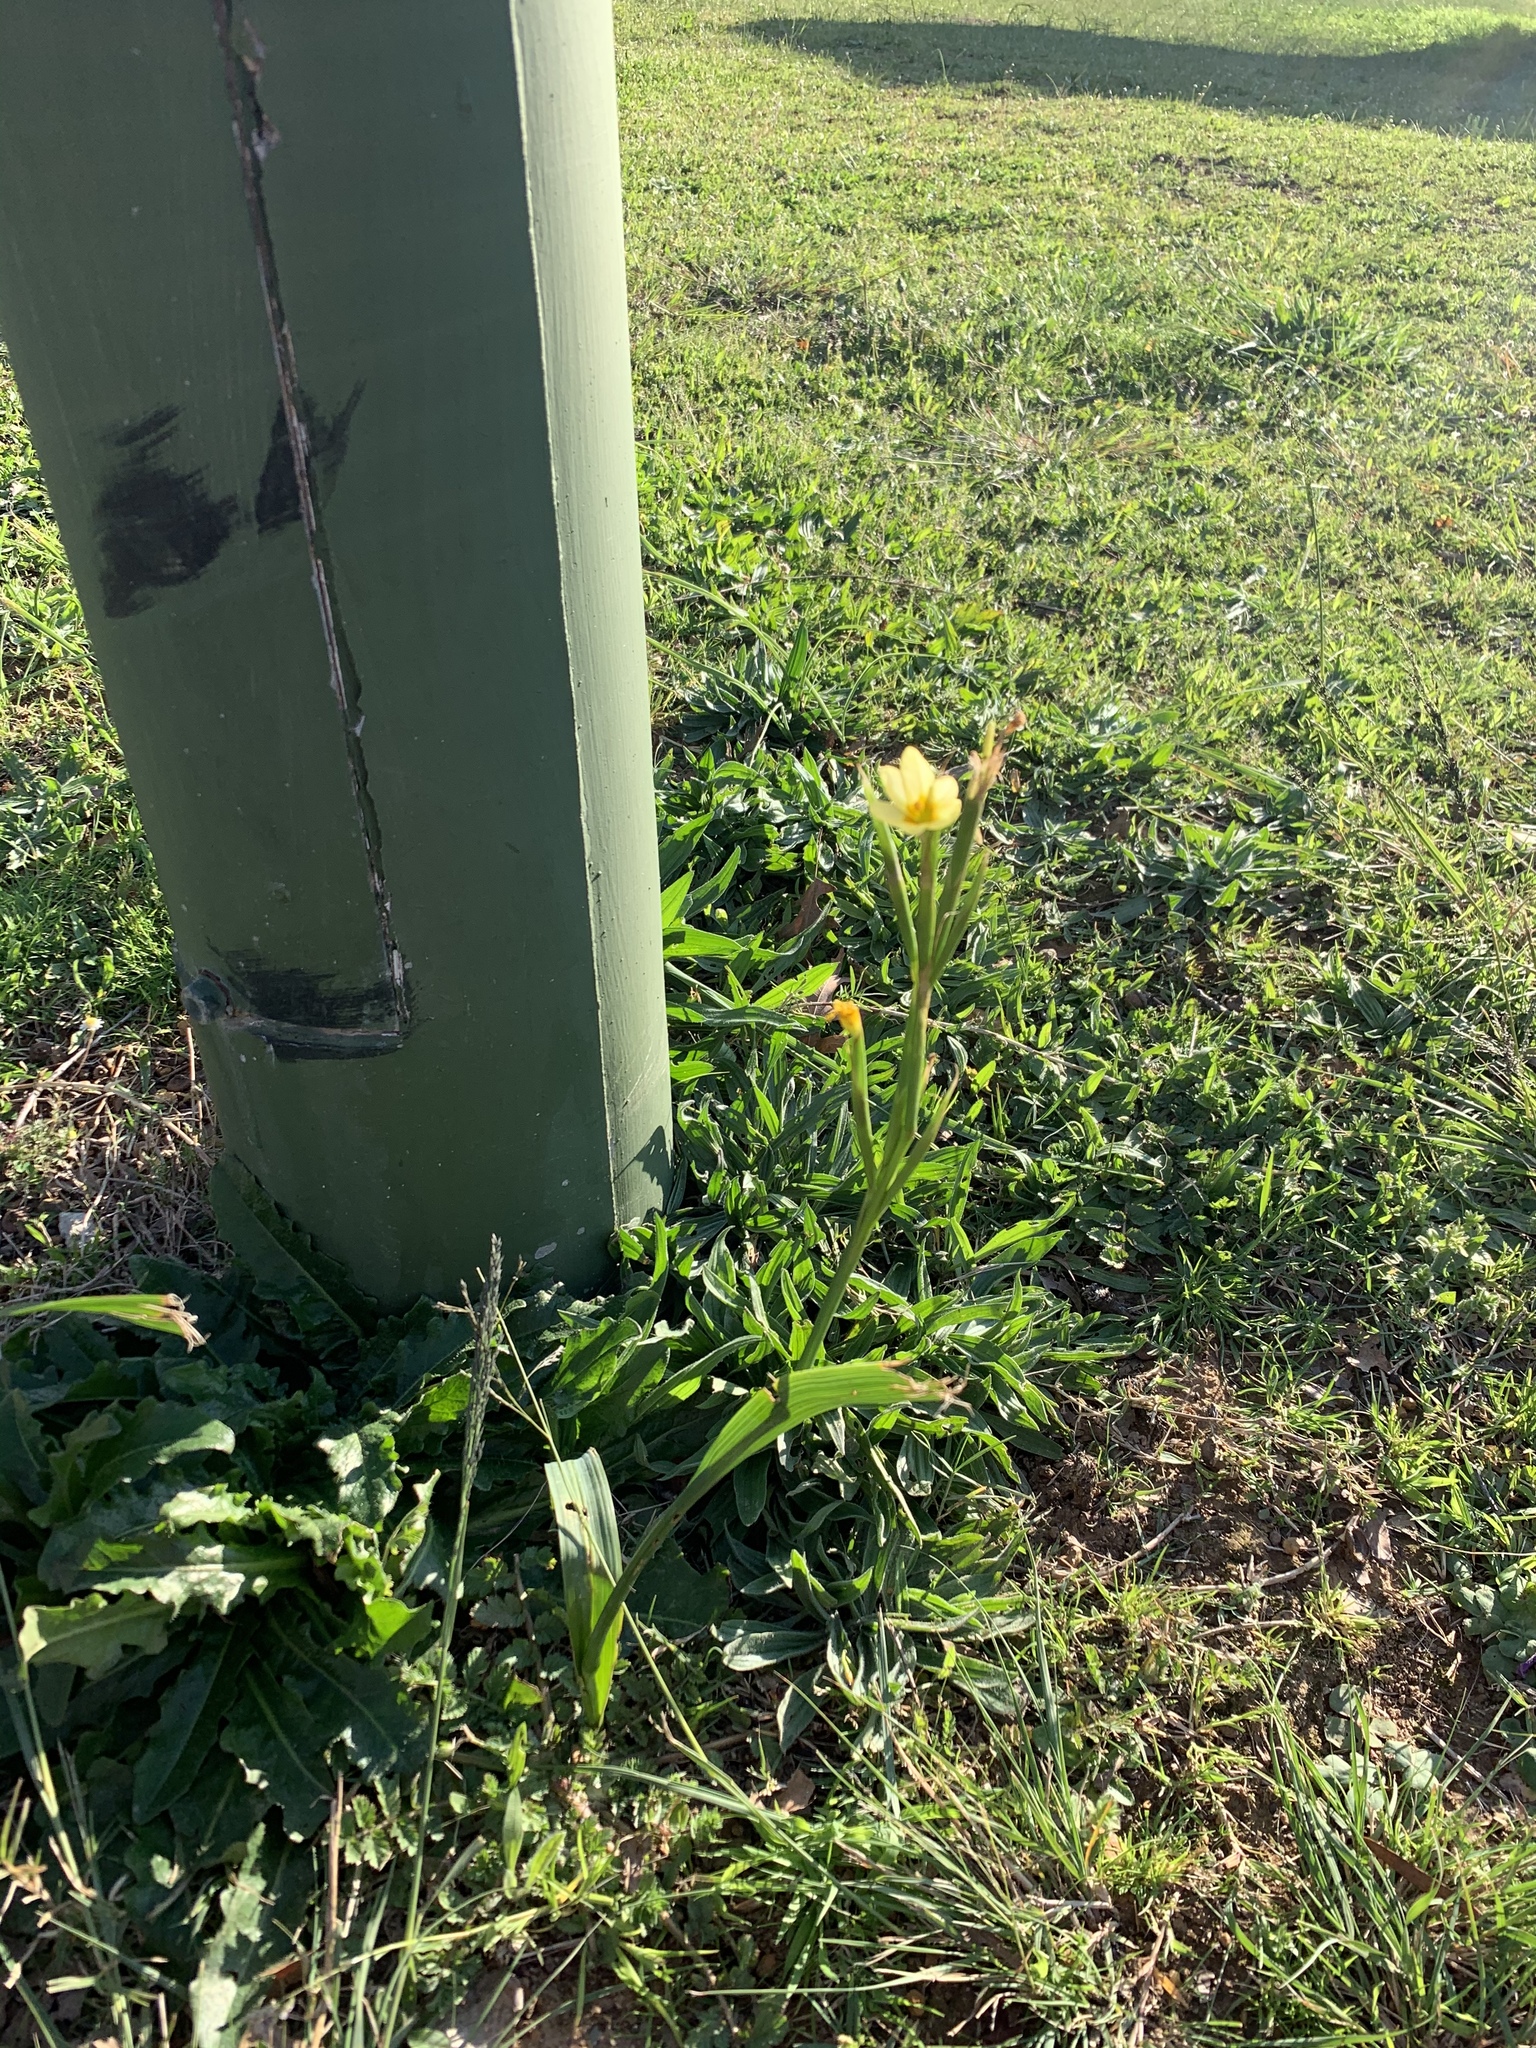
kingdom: Plantae
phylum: Tracheophyta
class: Liliopsida
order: Asparagales
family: Iridaceae
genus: Moraea
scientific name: Moraea miniata
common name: Two-leaf cape-tulip
